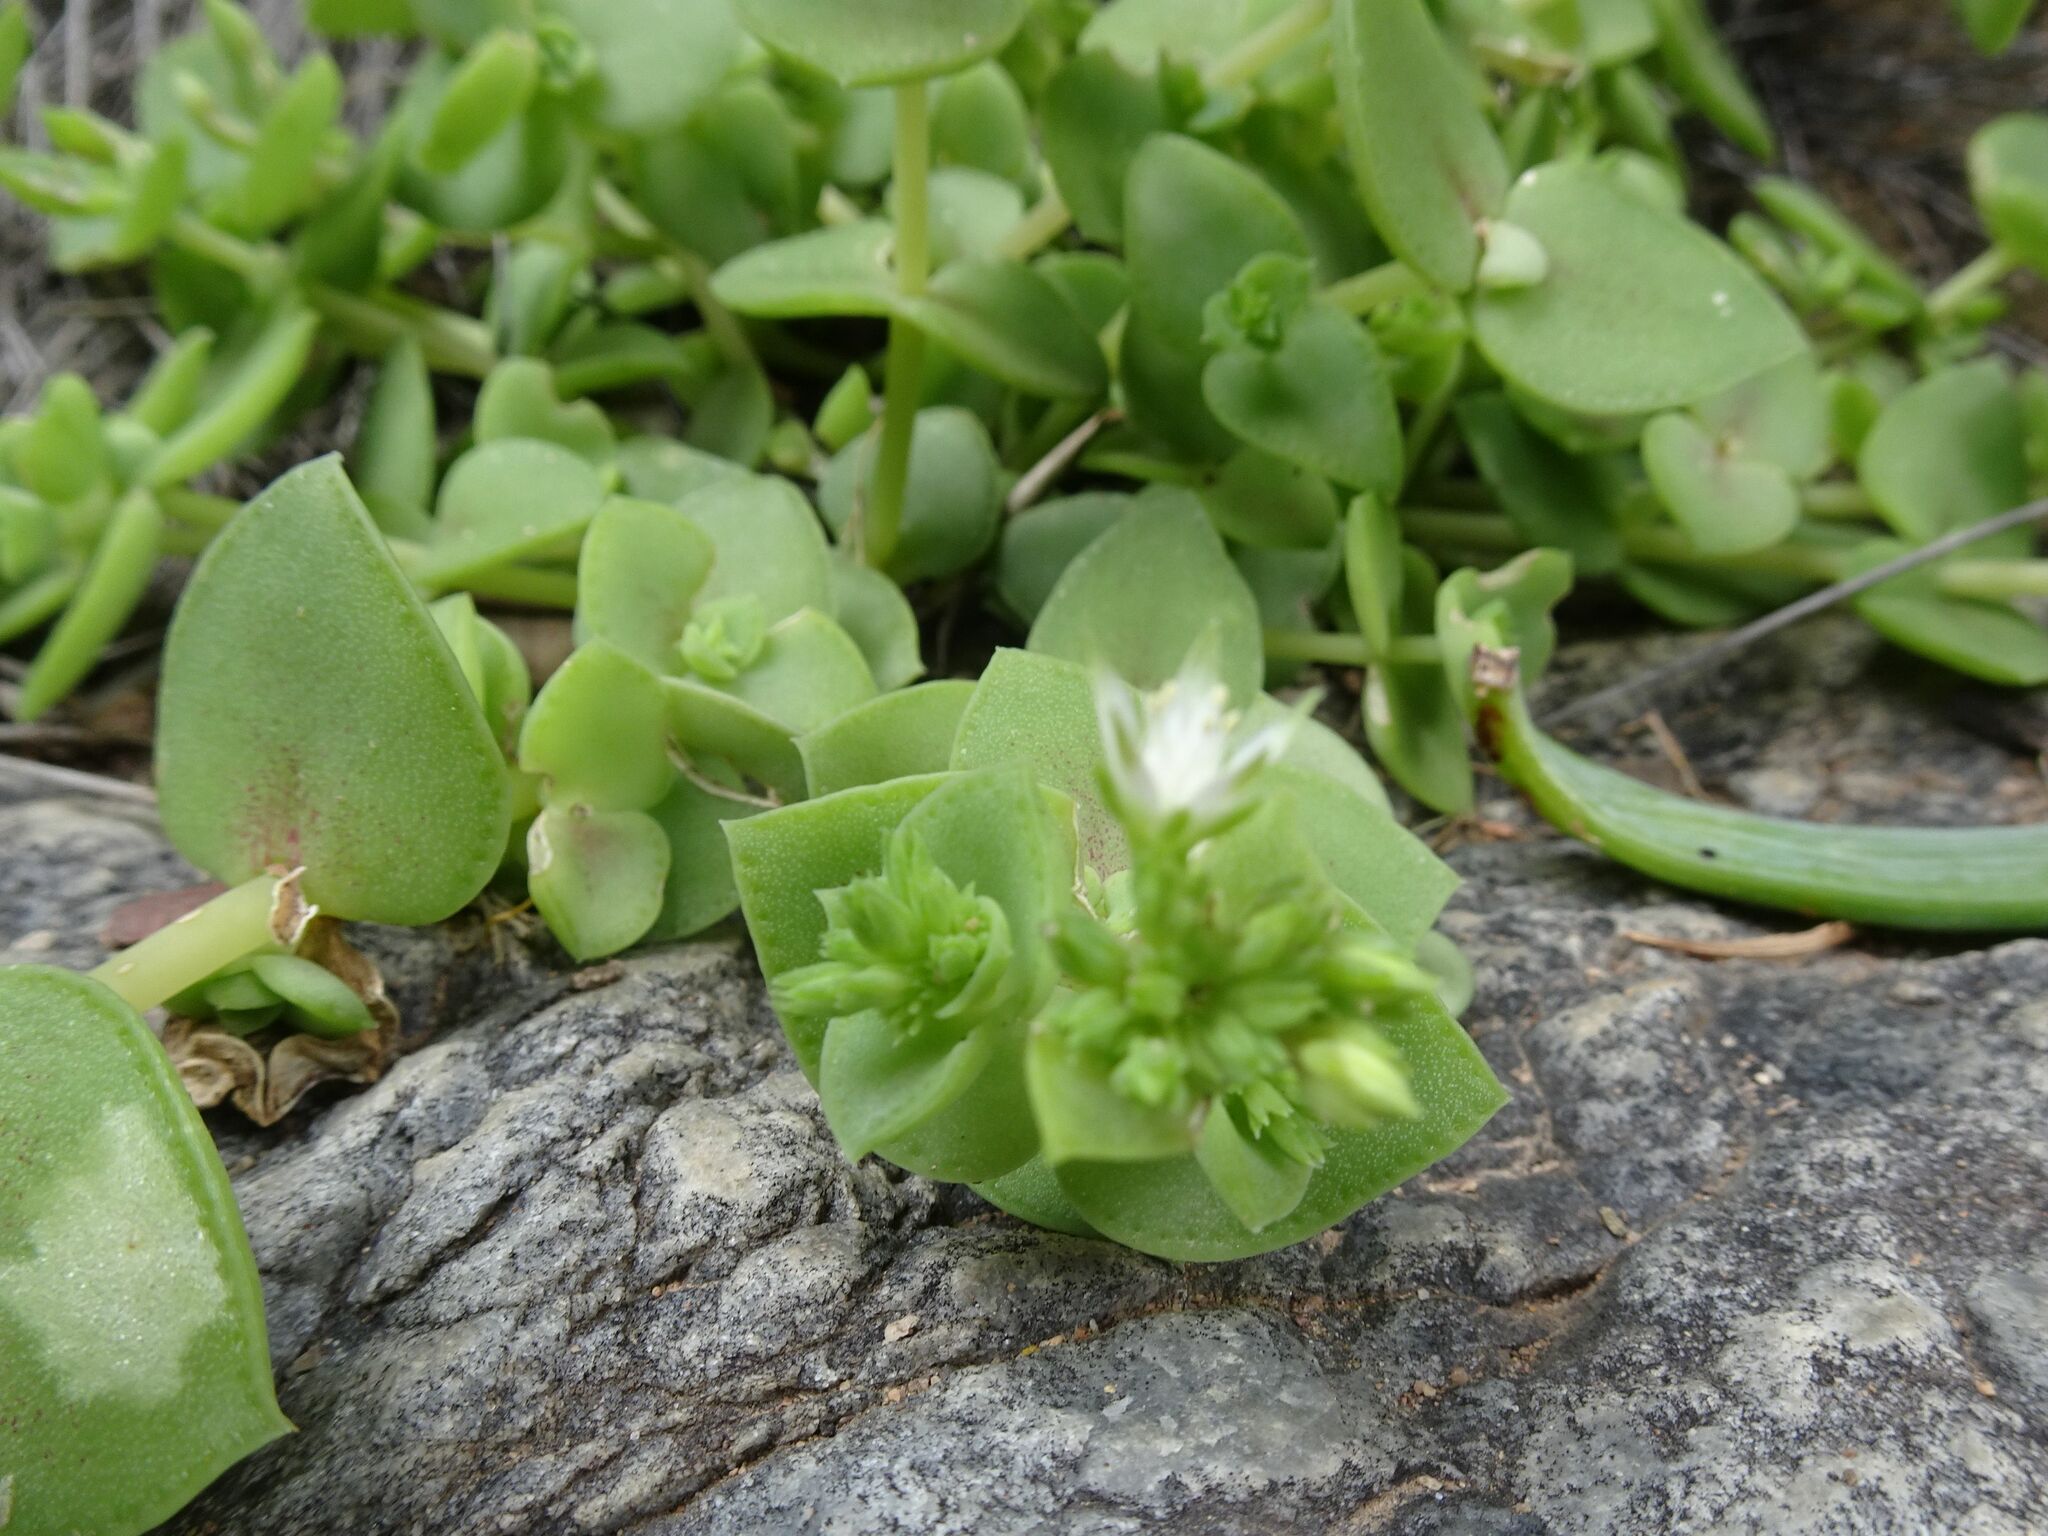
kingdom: Plantae
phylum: Tracheophyta
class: Magnoliopsida
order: Saxifragales
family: Crassulaceae
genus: Crassula
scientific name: Crassula pellucida
